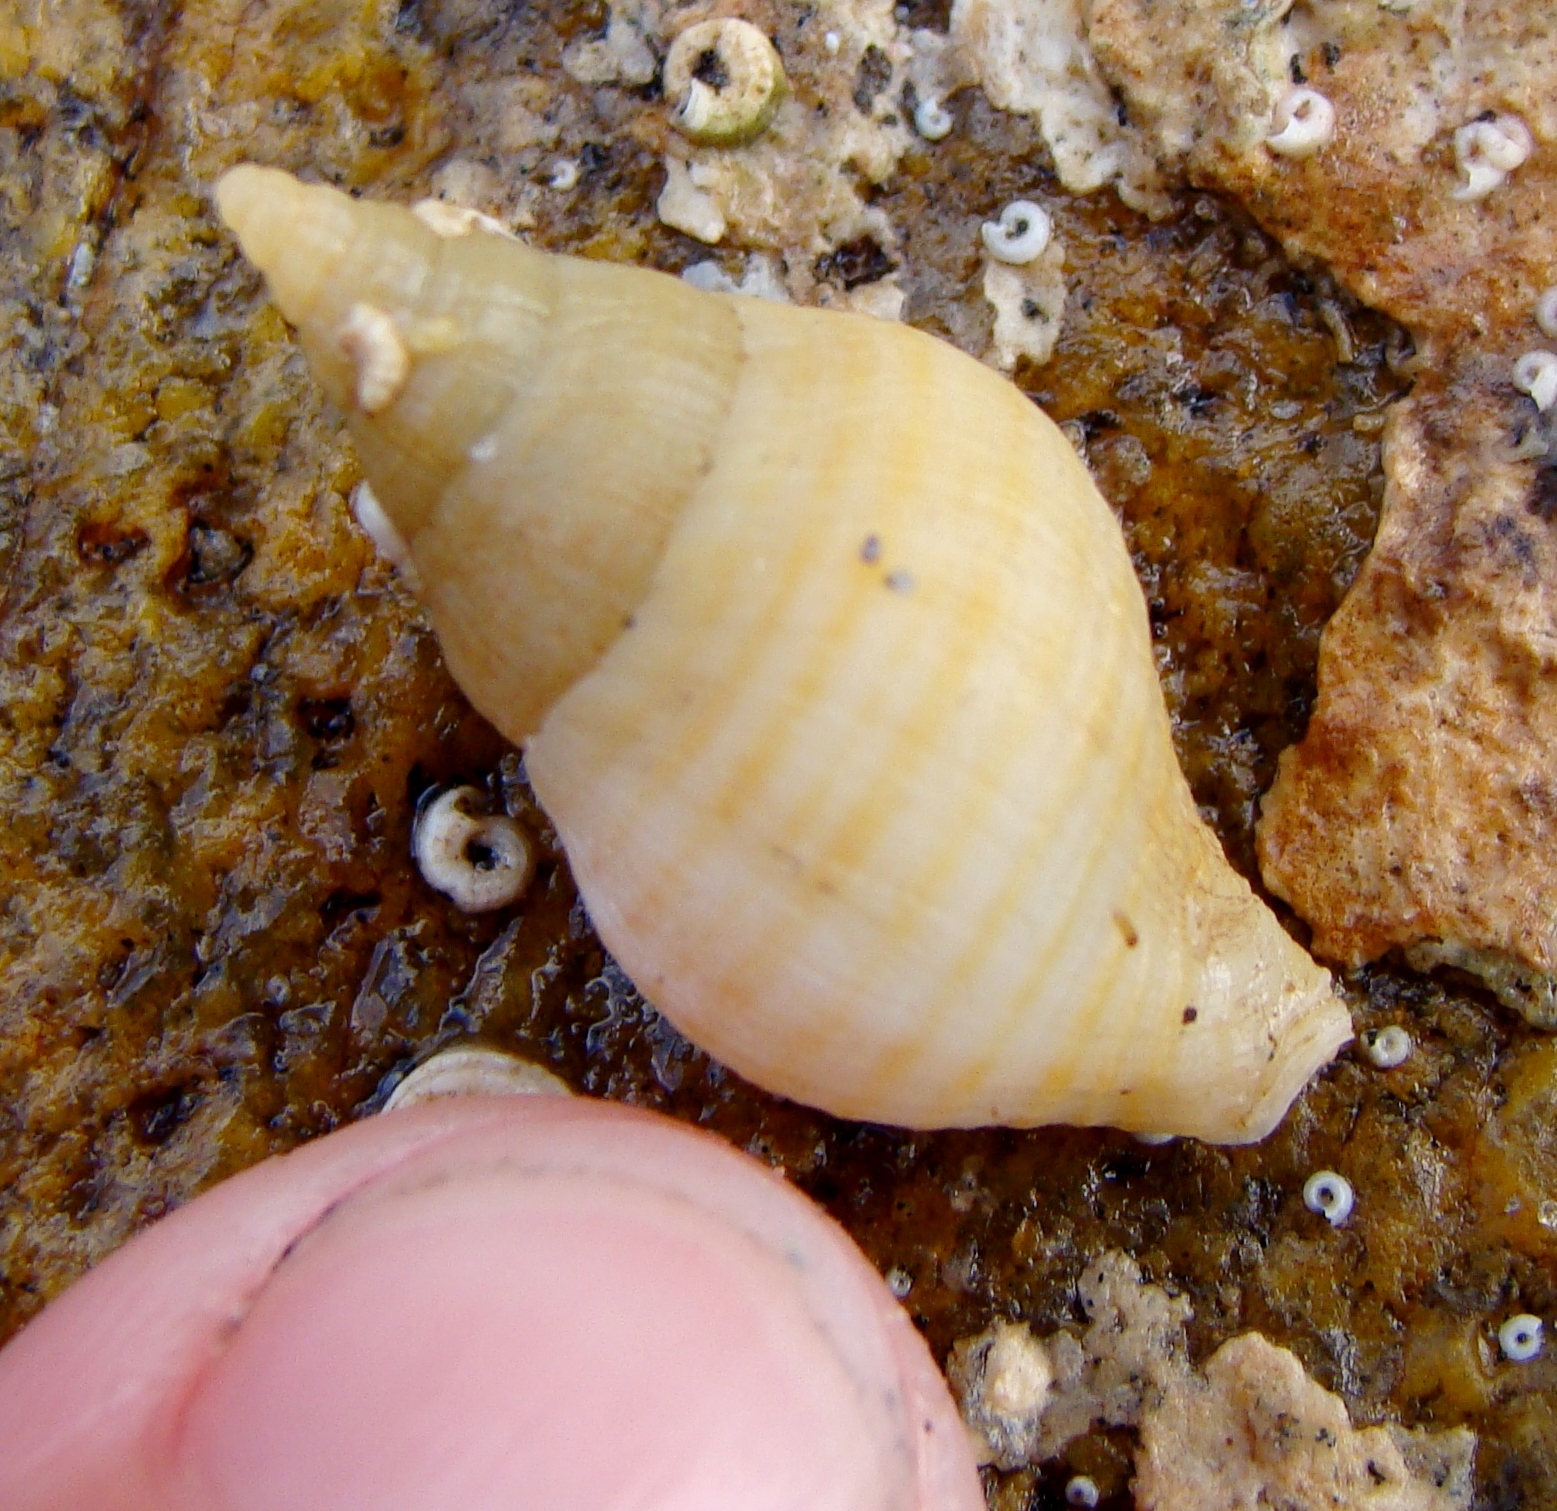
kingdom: Animalia
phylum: Mollusca
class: Gastropoda
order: Neogastropoda
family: Tudiclidae
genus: Buccinulum
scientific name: Buccinulum littorinoides
